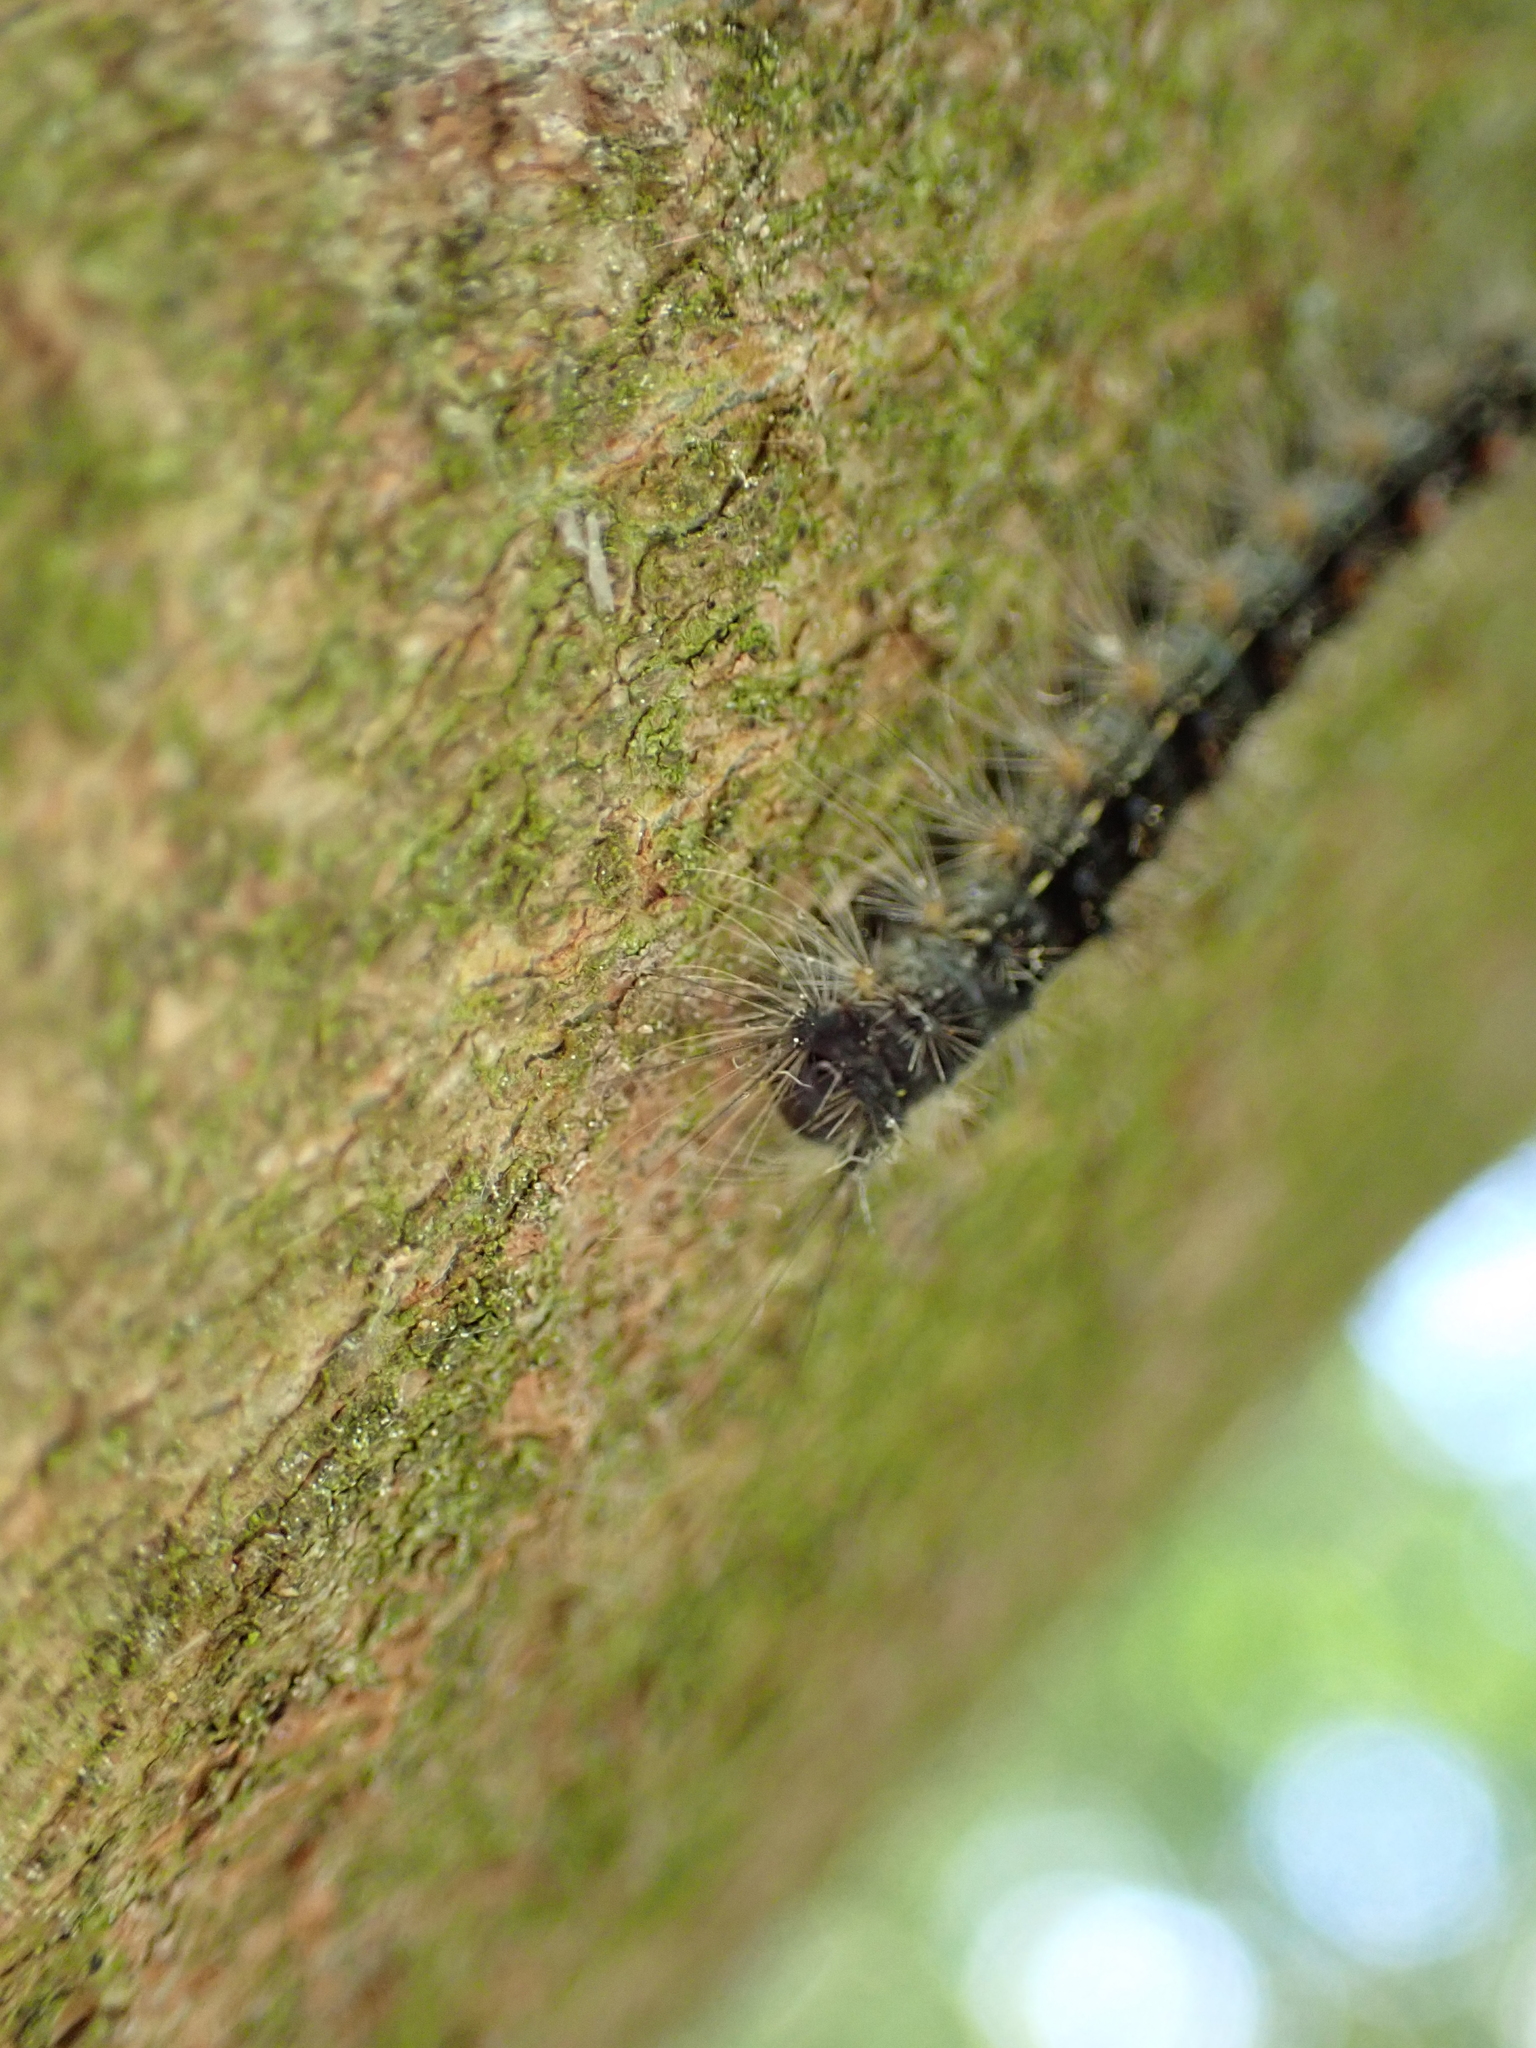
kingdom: Animalia
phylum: Arthropoda
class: Insecta
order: Lepidoptera
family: Erebidae
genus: Lymantria
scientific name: Lymantria dispar
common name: Gypsy moth
